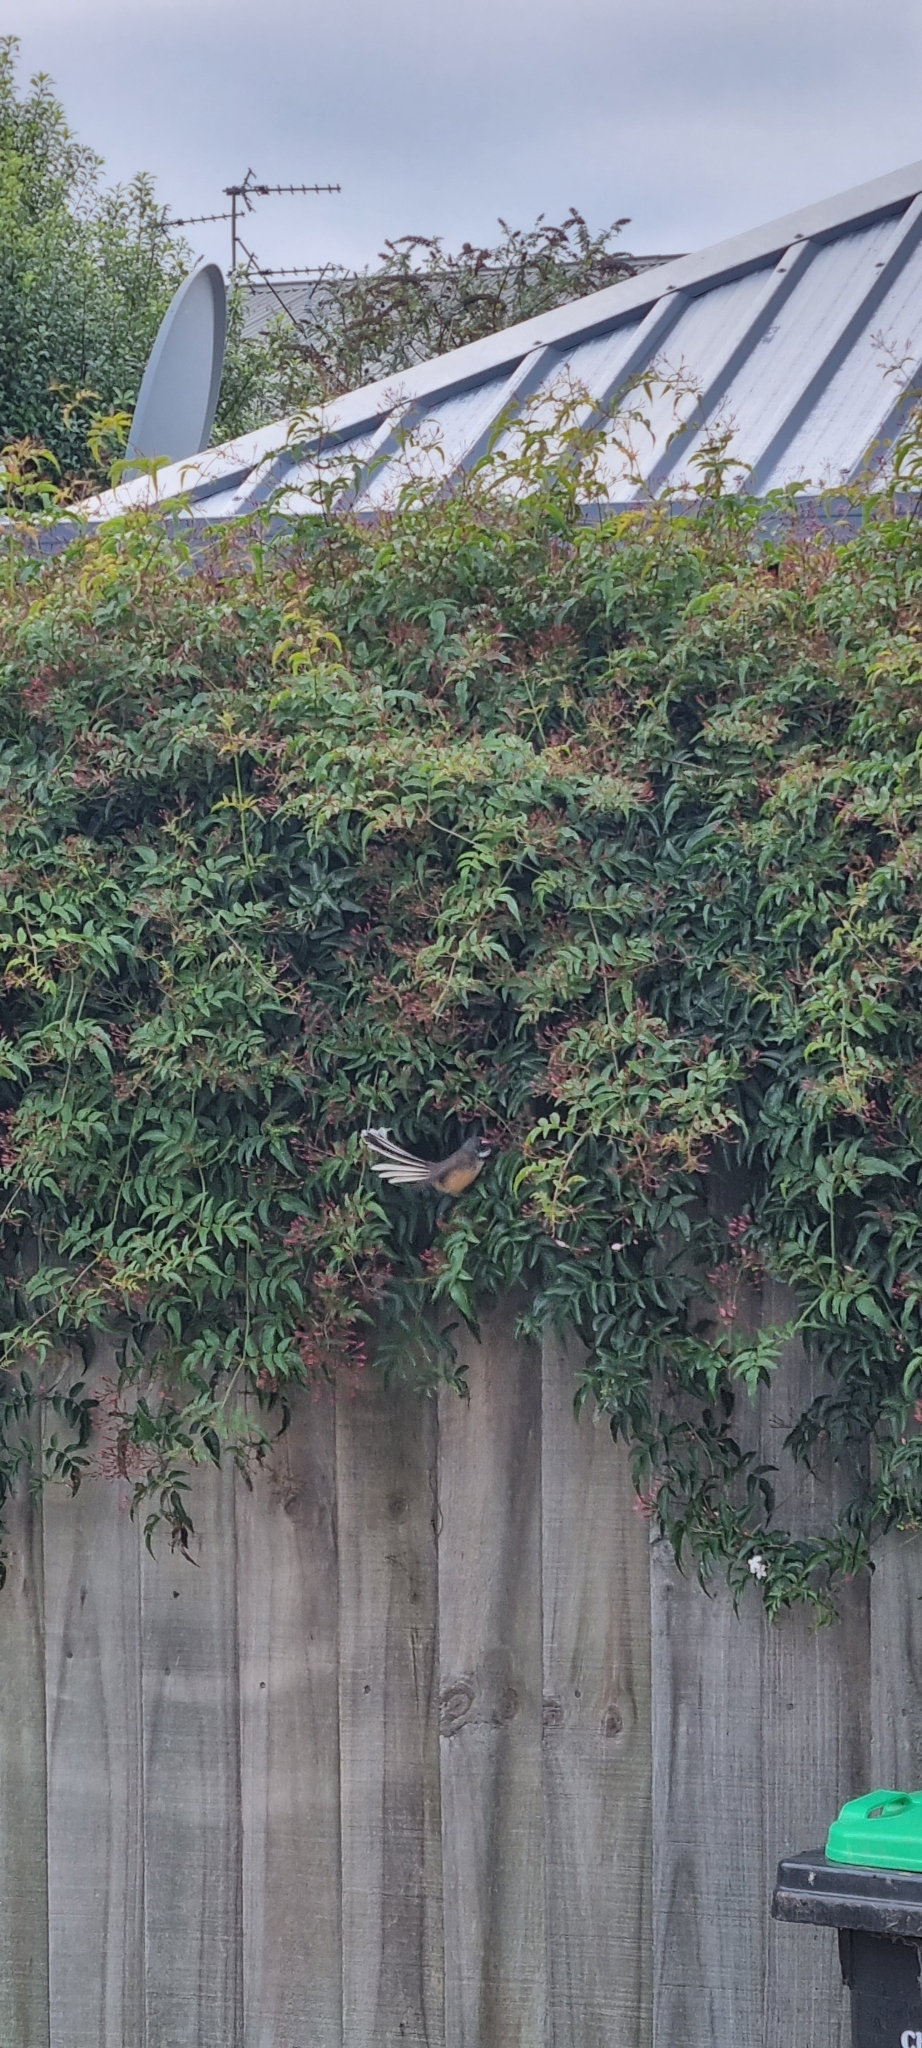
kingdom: Animalia
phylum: Chordata
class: Aves
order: Passeriformes
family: Rhipiduridae
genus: Rhipidura
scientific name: Rhipidura fuliginosa
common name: New zealand fantail
